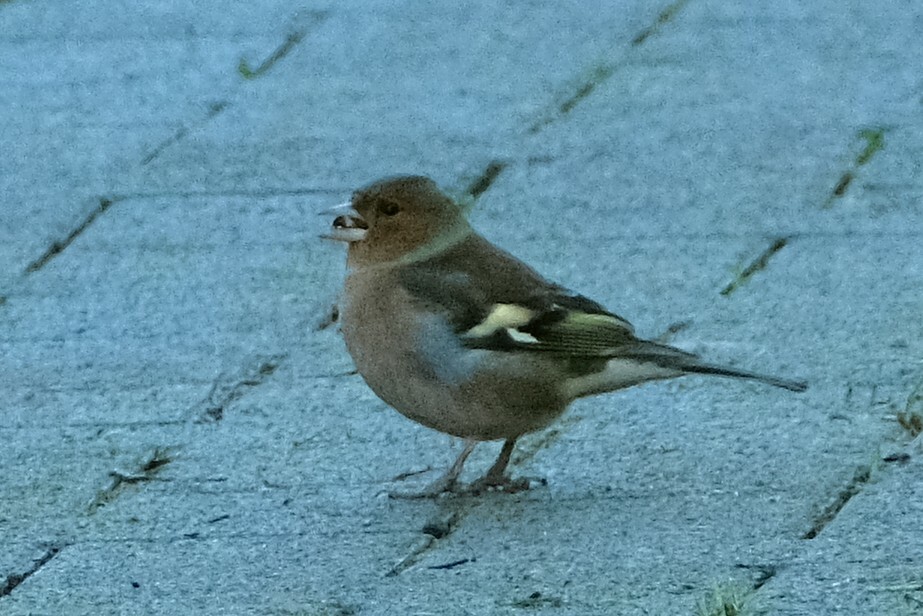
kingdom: Animalia
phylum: Chordata
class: Aves
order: Passeriformes
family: Fringillidae
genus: Fringilla
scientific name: Fringilla coelebs
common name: Common chaffinch
